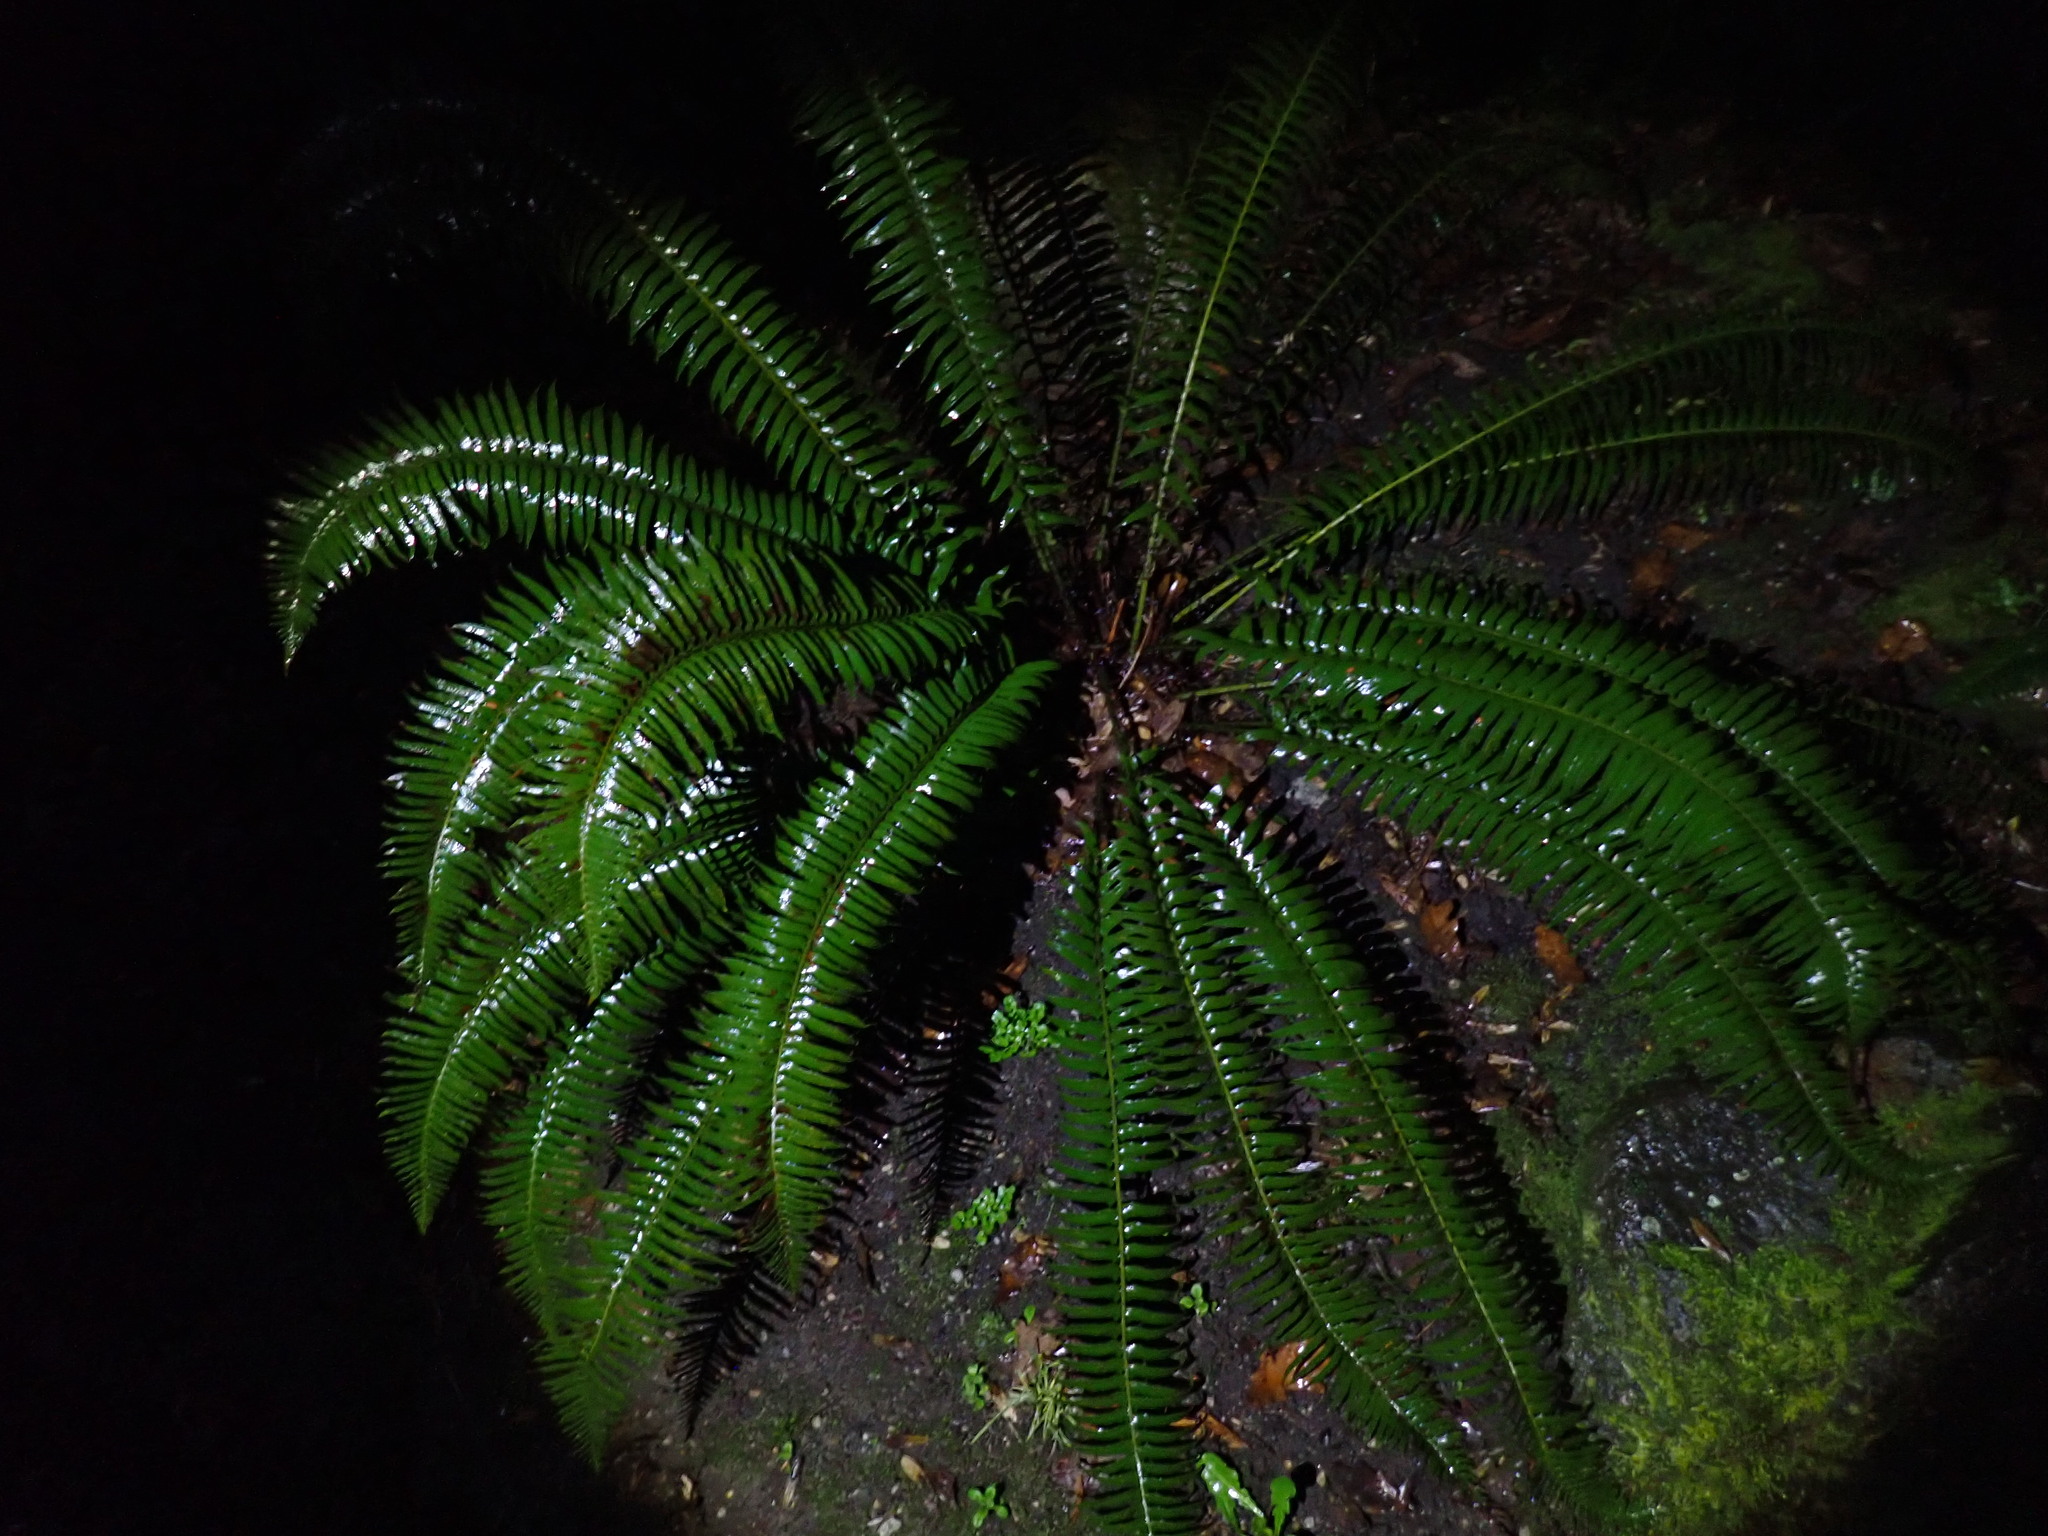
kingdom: Plantae
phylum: Tracheophyta
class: Polypodiopsida
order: Polypodiales
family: Dryopteridaceae
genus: Polystichum
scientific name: Polystichum munitum
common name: Western sword-fern
